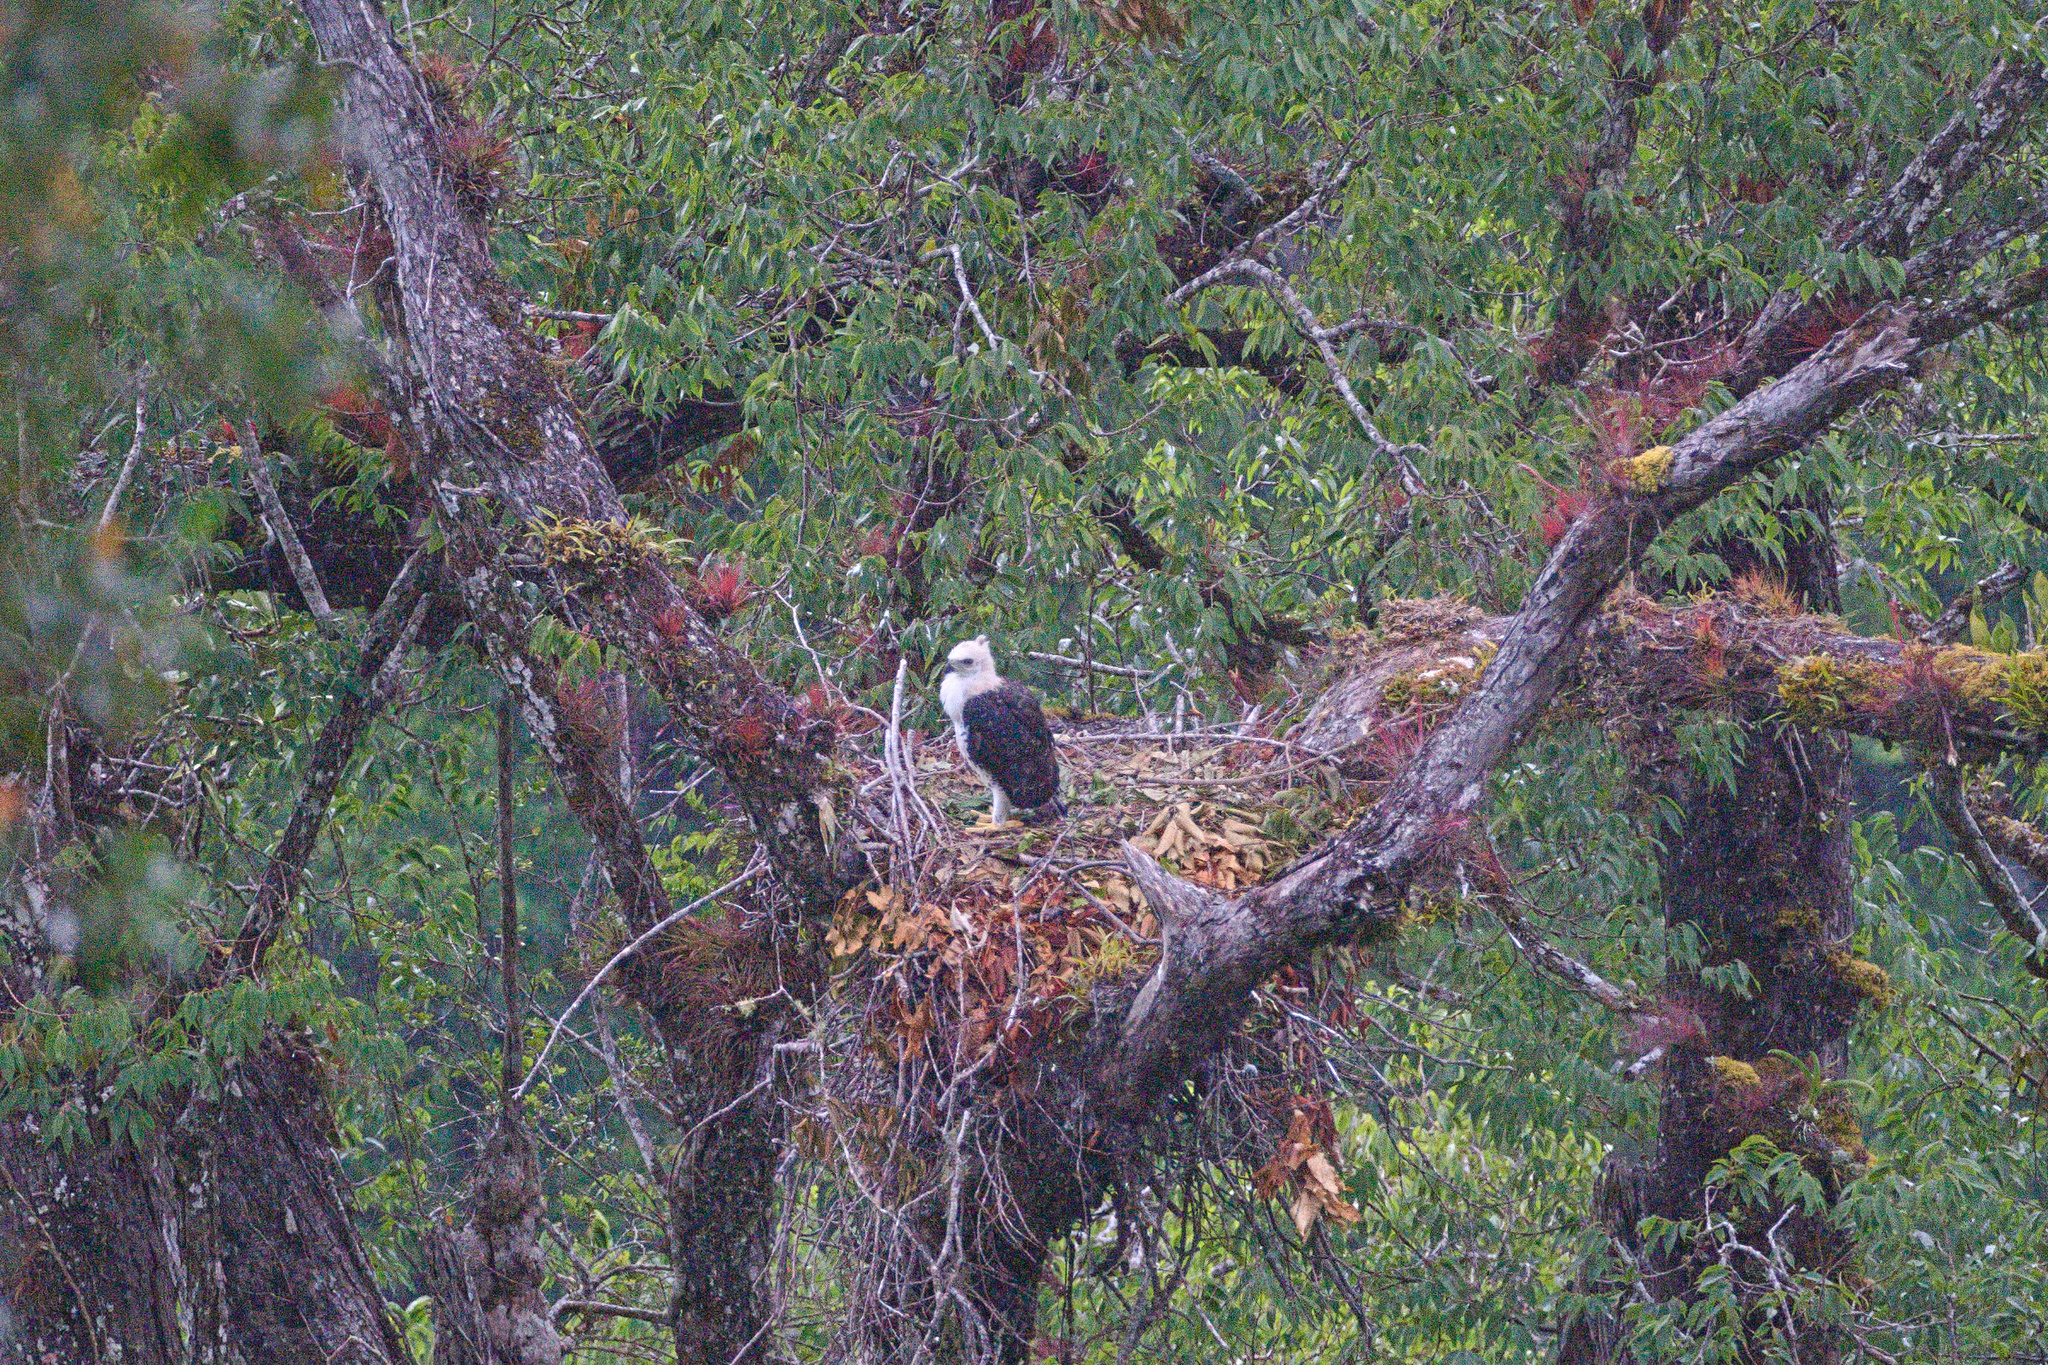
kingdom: Animalia
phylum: Chordata
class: Aves
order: Accipitriformes
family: Accipitridae
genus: Spizaetus
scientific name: Spizaetus ornatus
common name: Ornate hawk-eagle
